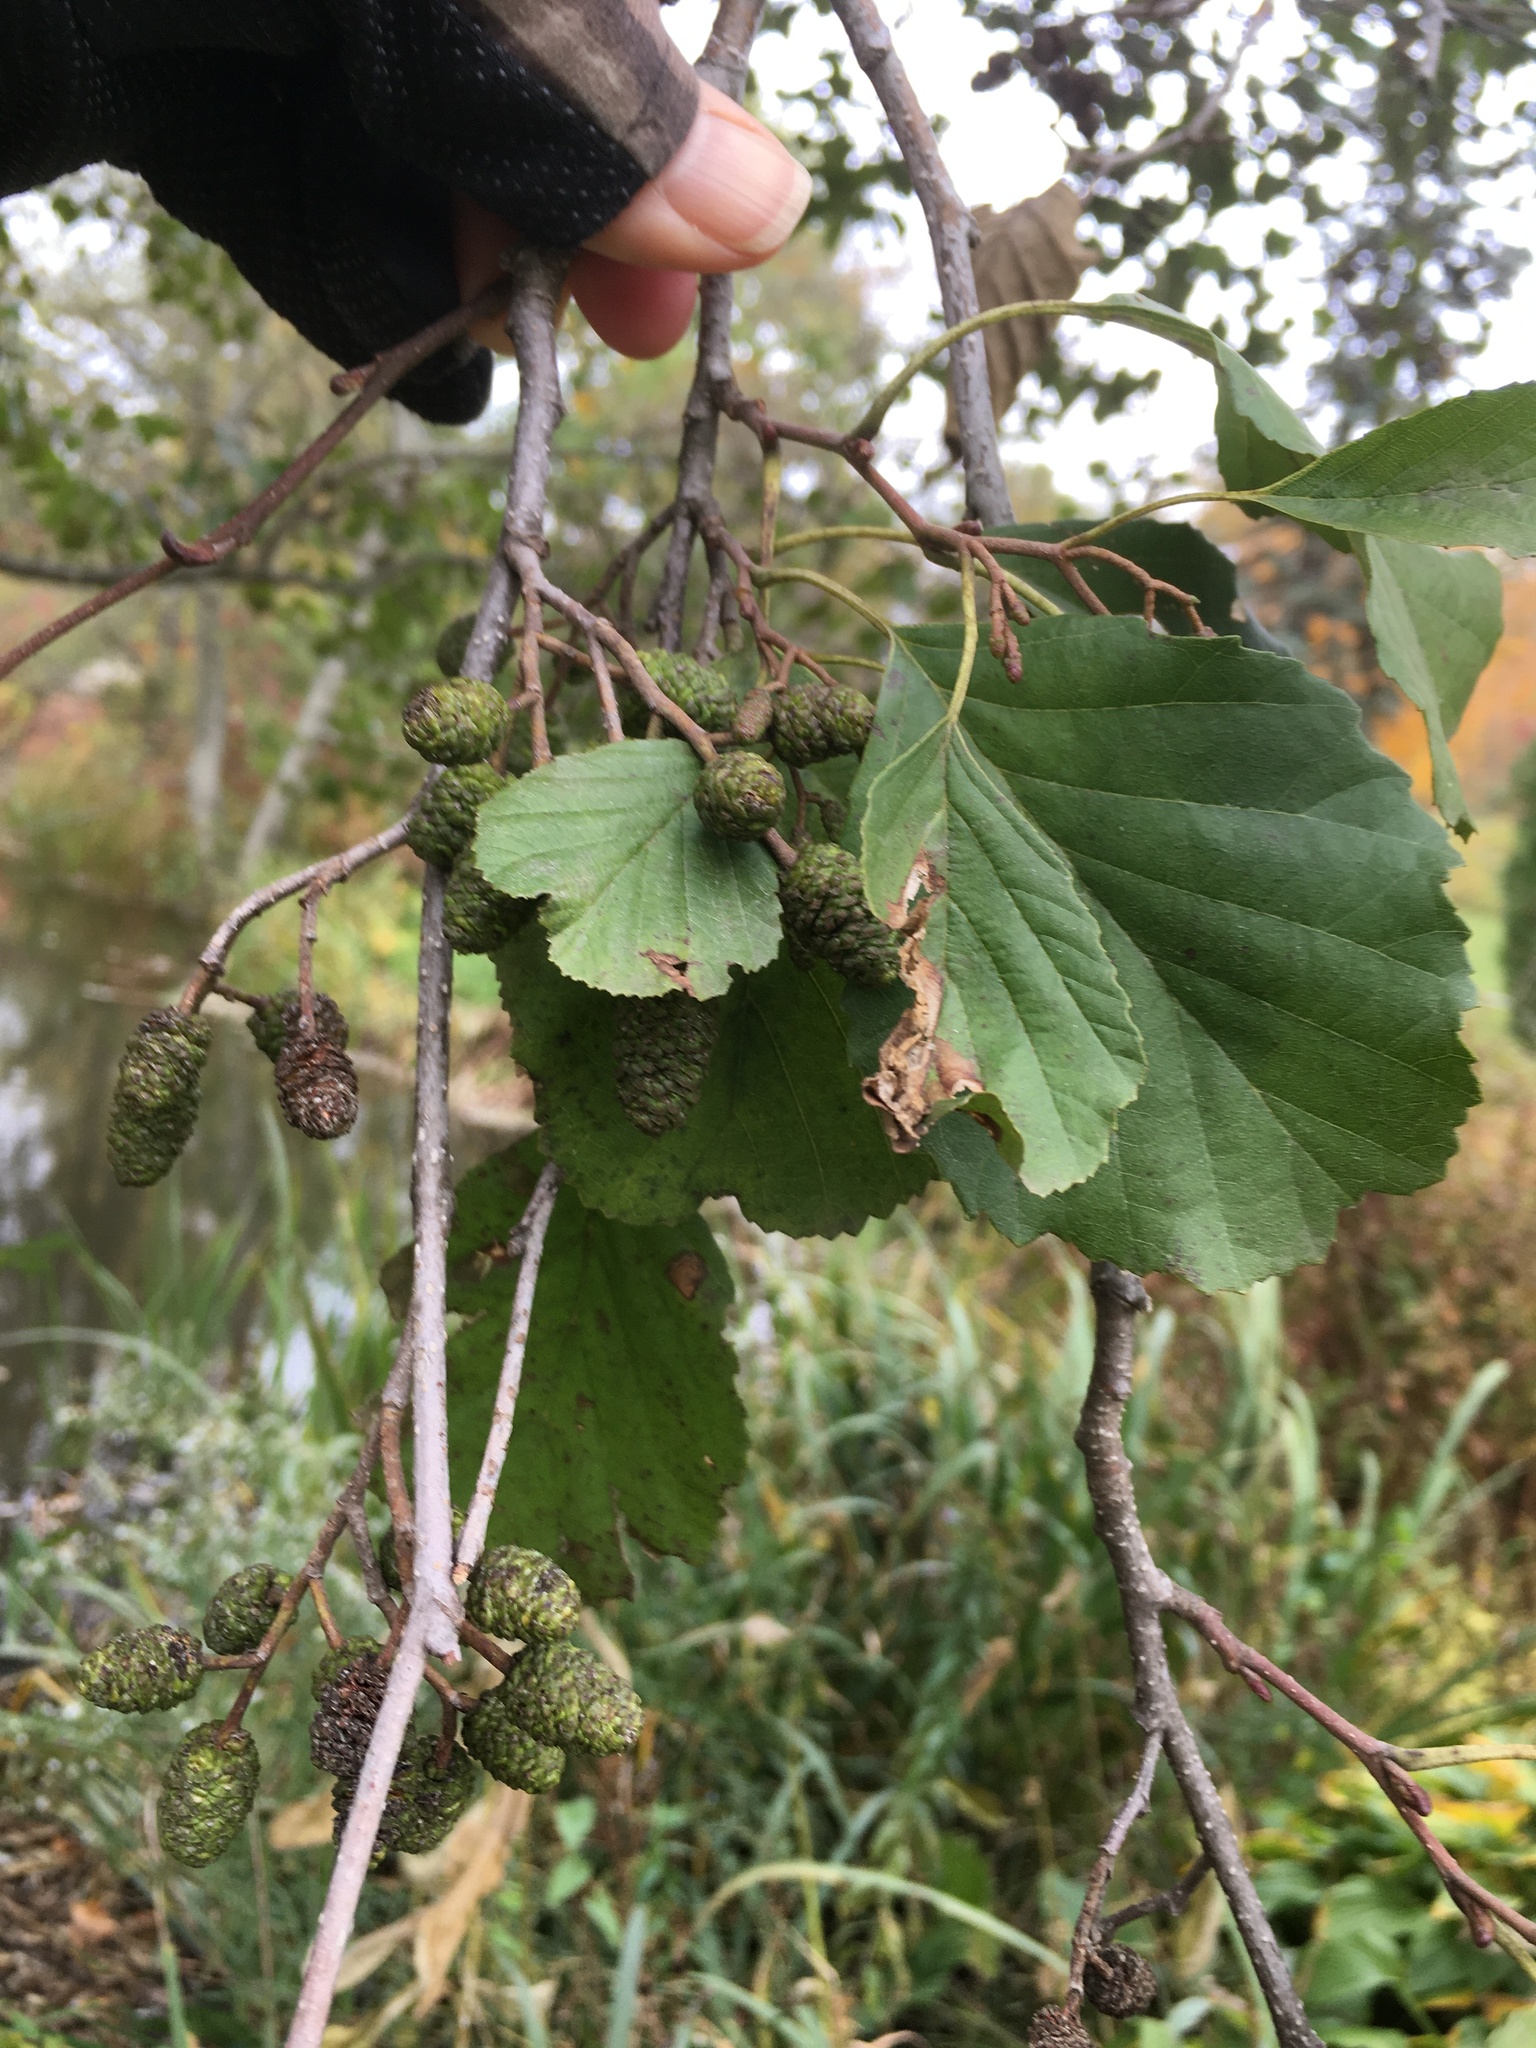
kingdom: Plantae
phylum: Tracheophyta
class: Magnoliopsida
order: Fagales
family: Betulaceae
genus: Alnus
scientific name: Alnus glutinosa
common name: Black alder
